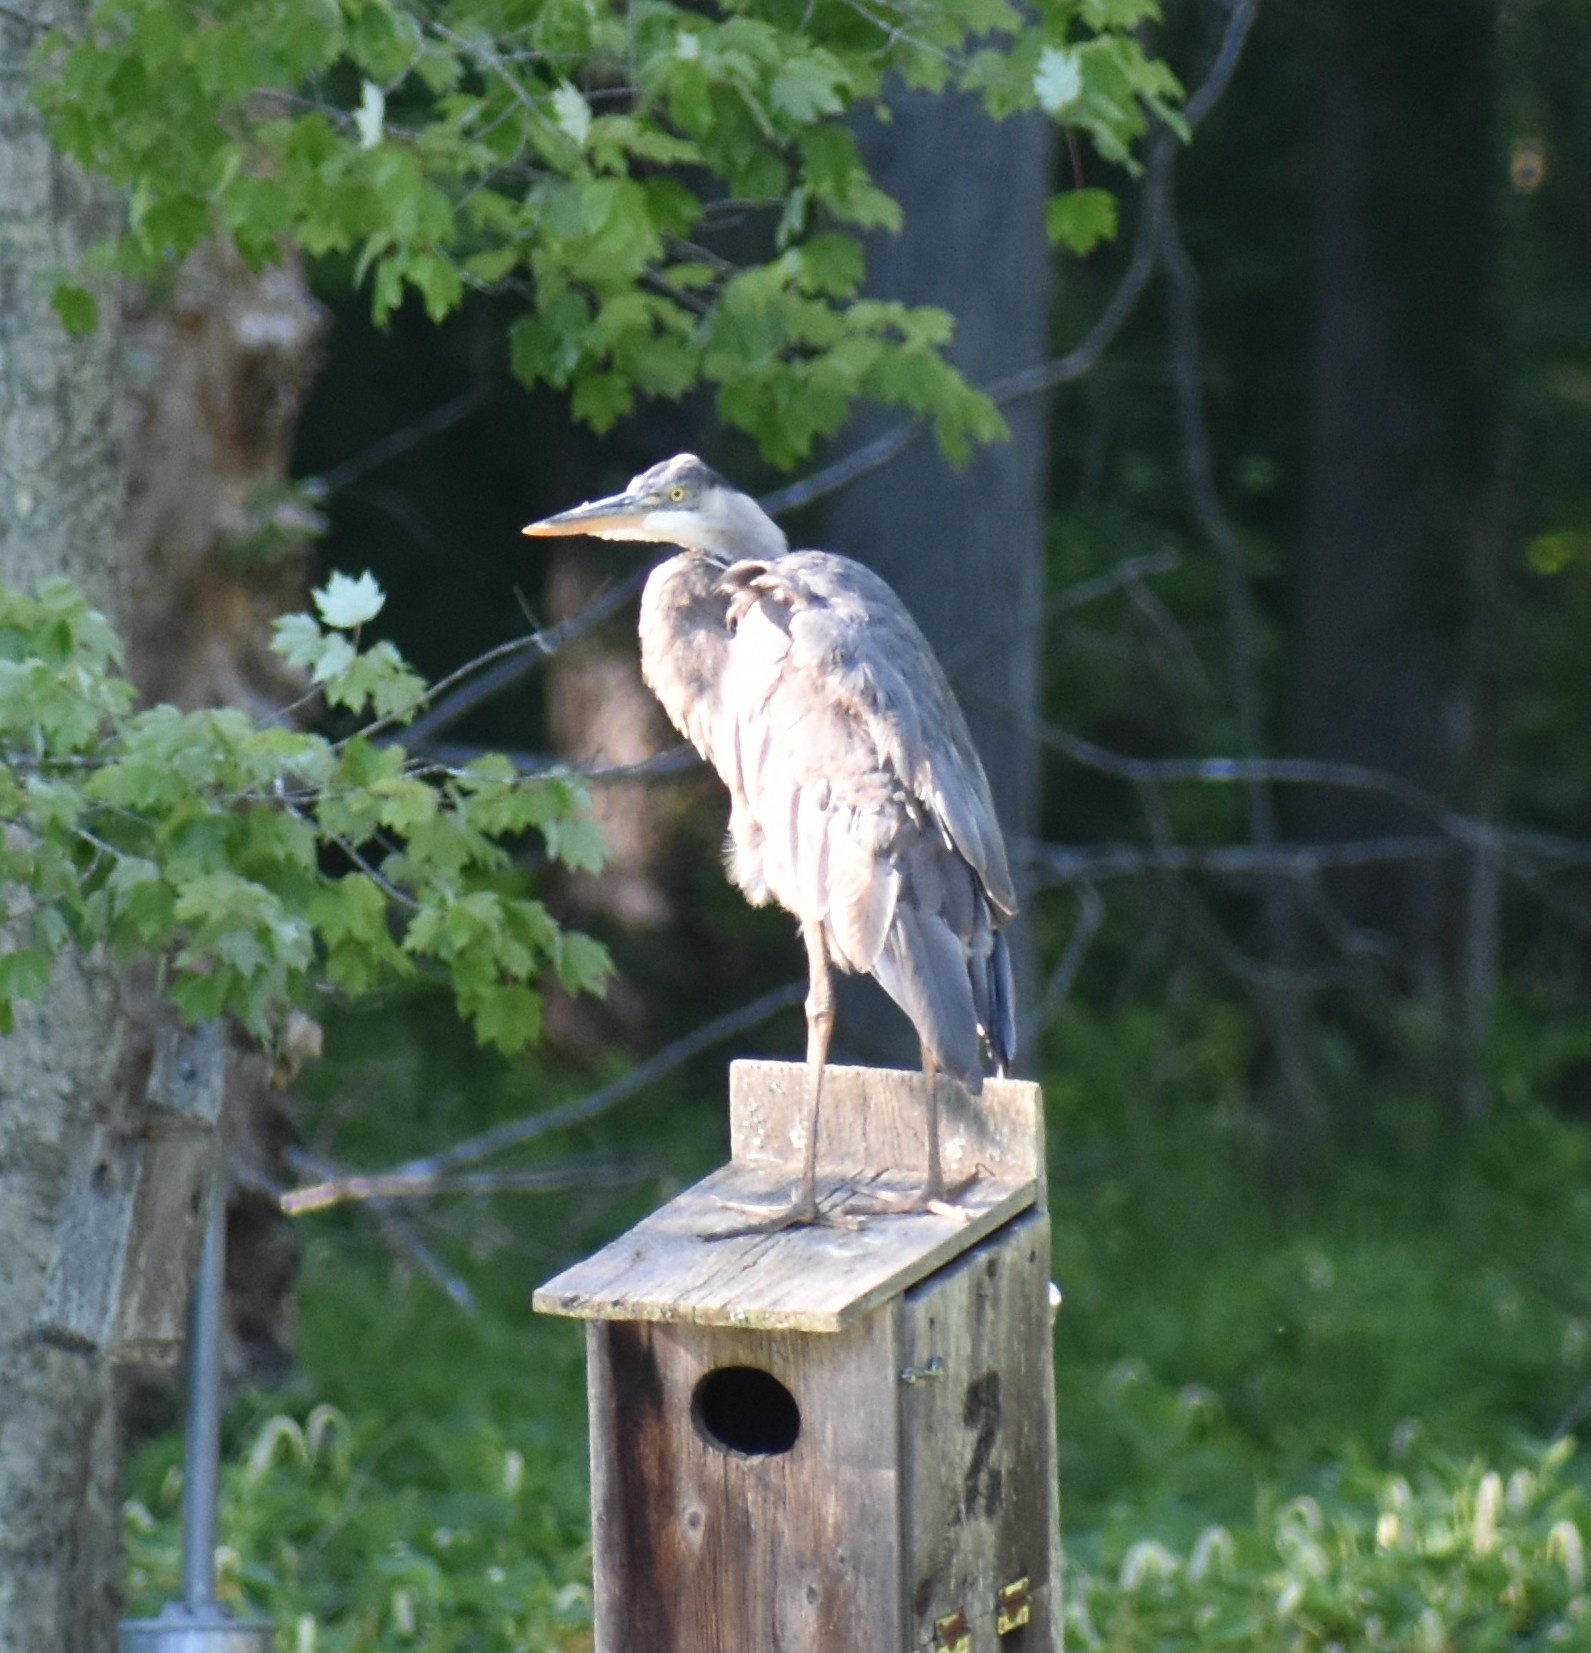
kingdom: Animalia
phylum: Chordata
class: Aves
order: Pelecaniformes
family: Ardeidae
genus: Ardea
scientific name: Ardea herodias
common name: Great blue heron
